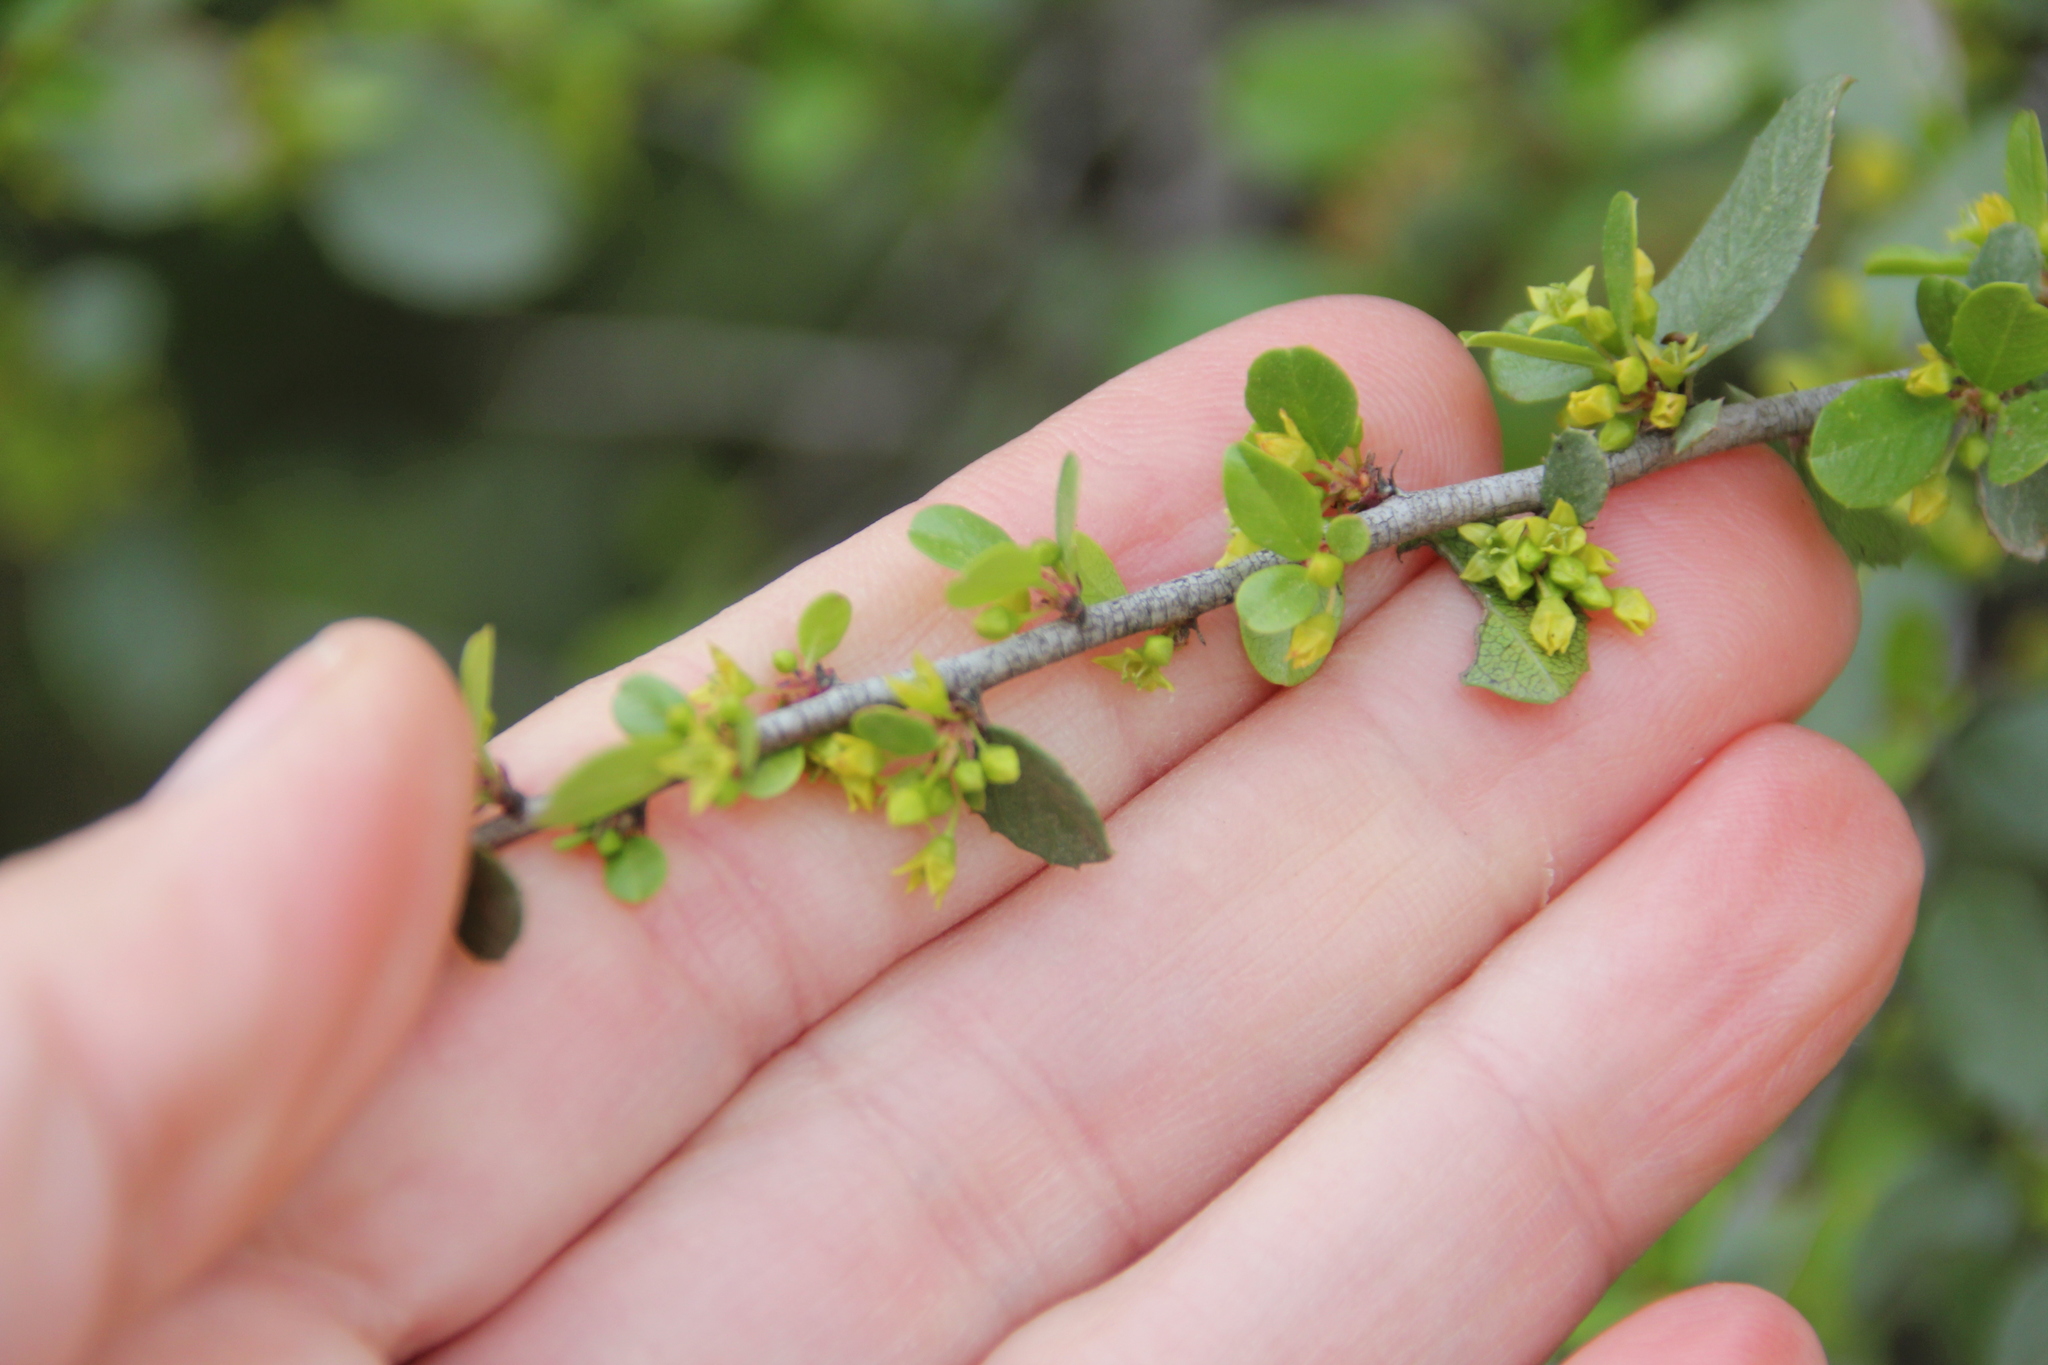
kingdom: Plantae
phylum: Tracheophyta
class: Magnoliopsida
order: Rosales
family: Rhamnaceae
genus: Endotropis
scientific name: Endotropis crocea
